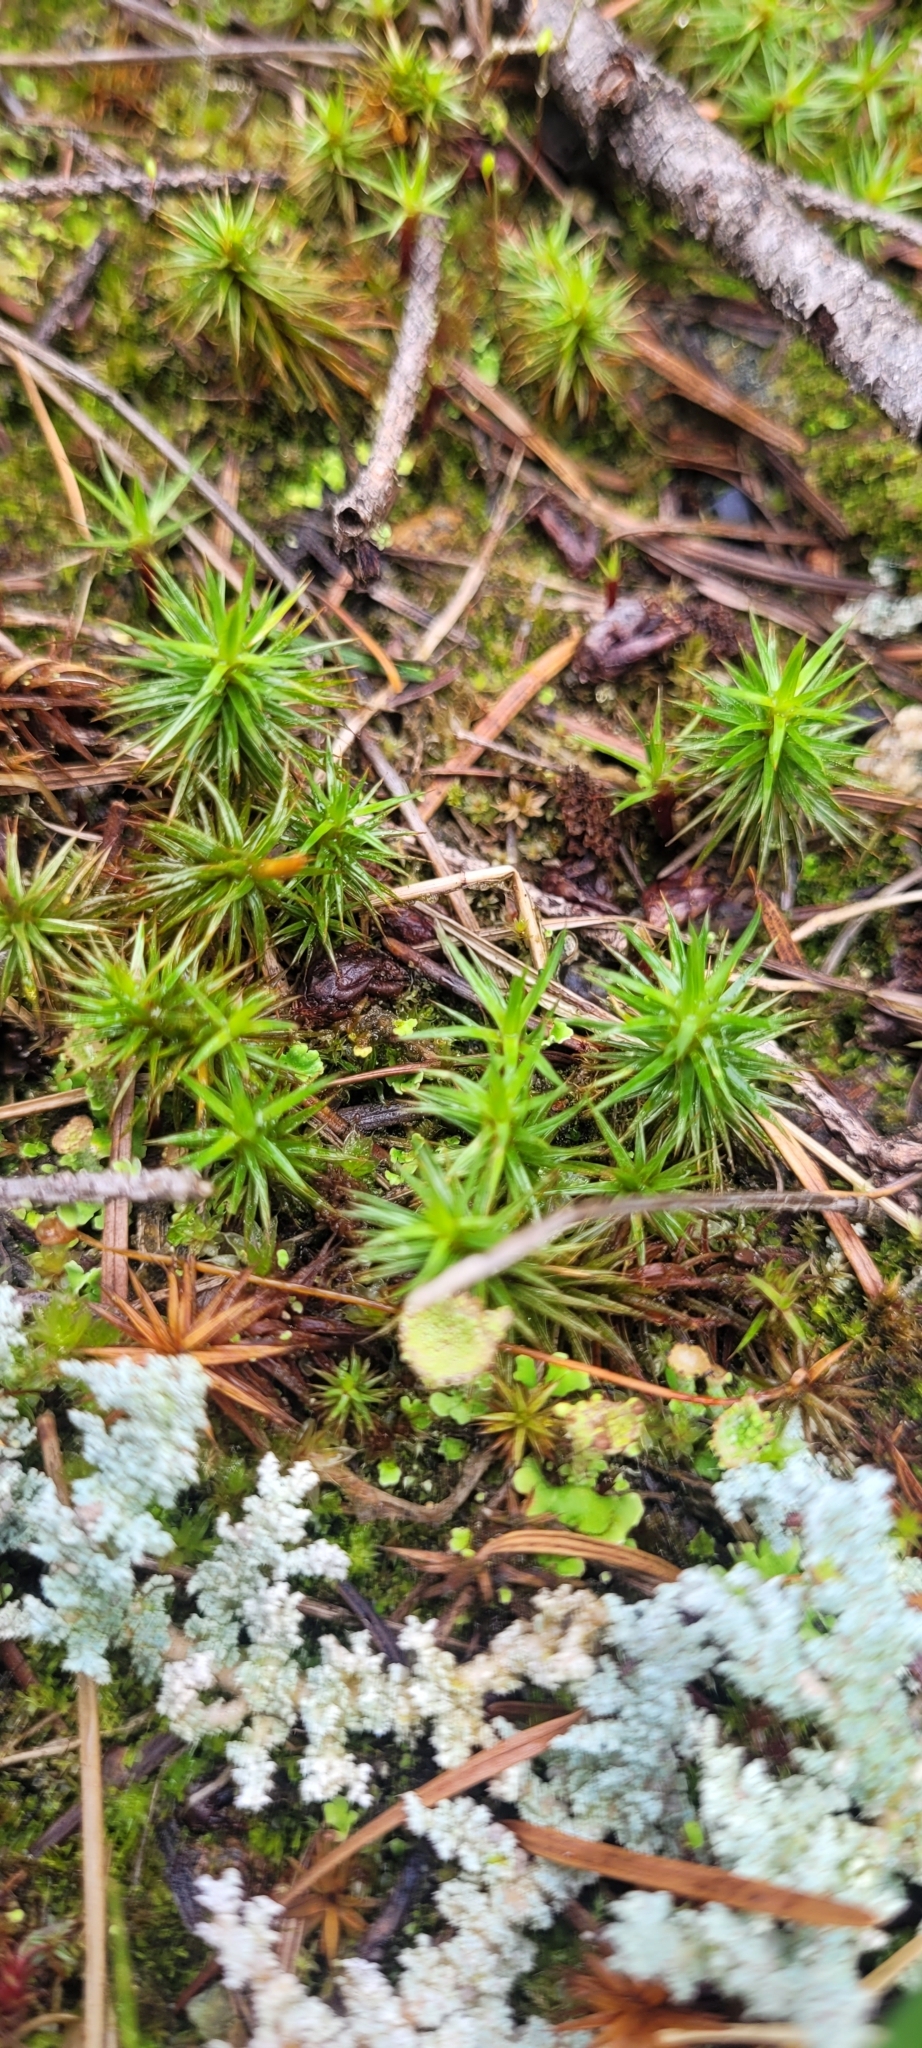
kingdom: Plantae
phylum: Bryophyta
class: Polytrichopsida
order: Polytrichales
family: Polytrichaceae
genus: Polytrichum
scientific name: Polytrichum juniperinum
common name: Juniper haircap moss
